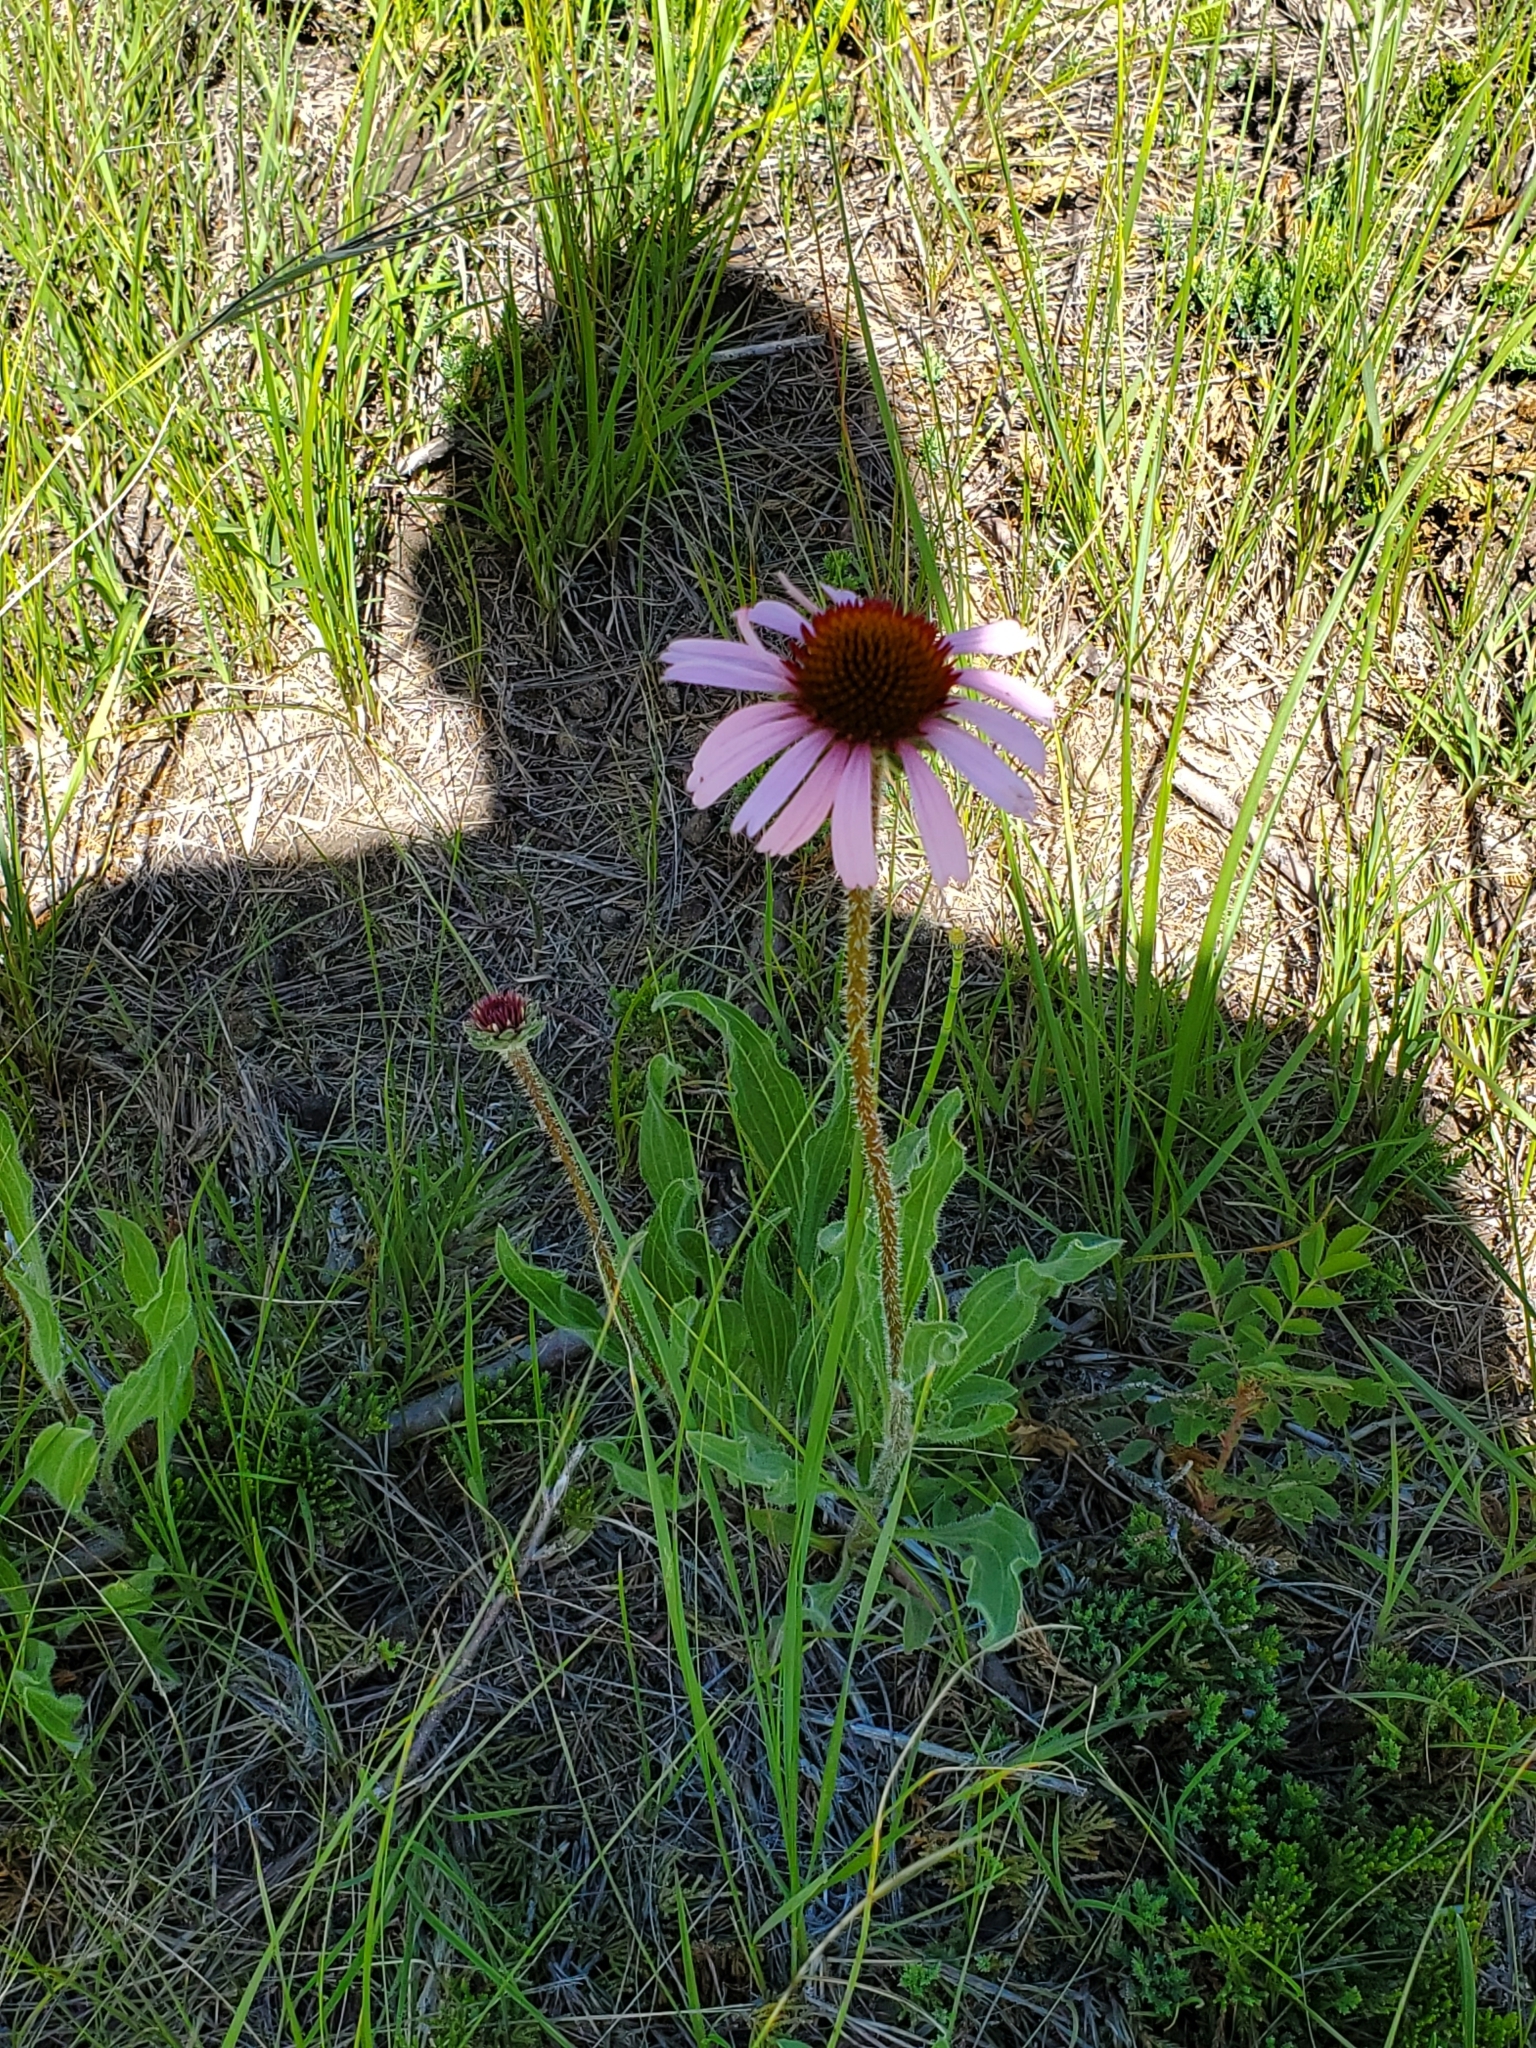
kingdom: Plantae
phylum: Tracheophyta
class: Magnoliopsida
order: Asterales
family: Asteraceae
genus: Echinacea
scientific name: Echinacea angustifolia
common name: Black-sampson echinacea
